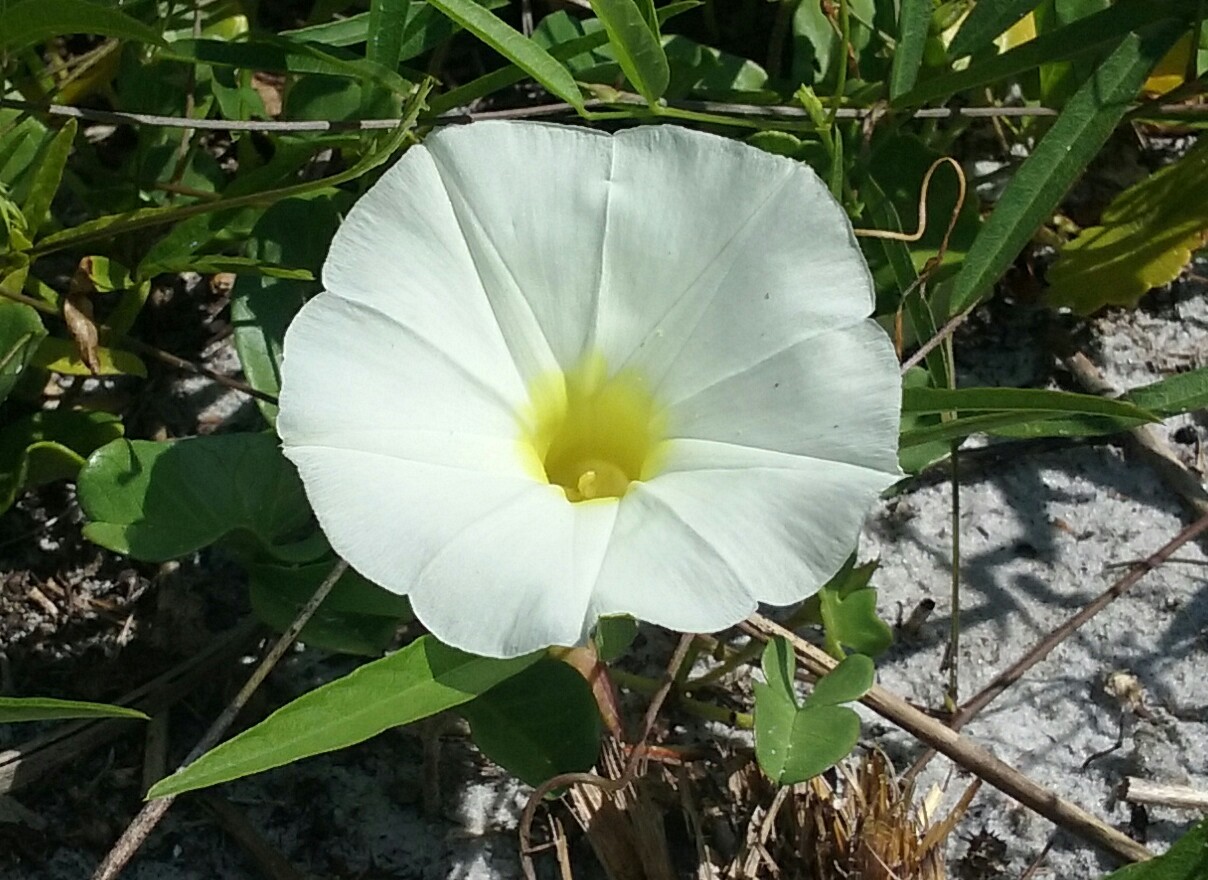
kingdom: Plantae
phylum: Tracheophyta
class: Magnoliopsida
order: Solanales
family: Convolvulaceae
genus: Ipomoea
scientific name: Ipomoea imperati
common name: Fiddle-leaf morning-glory
